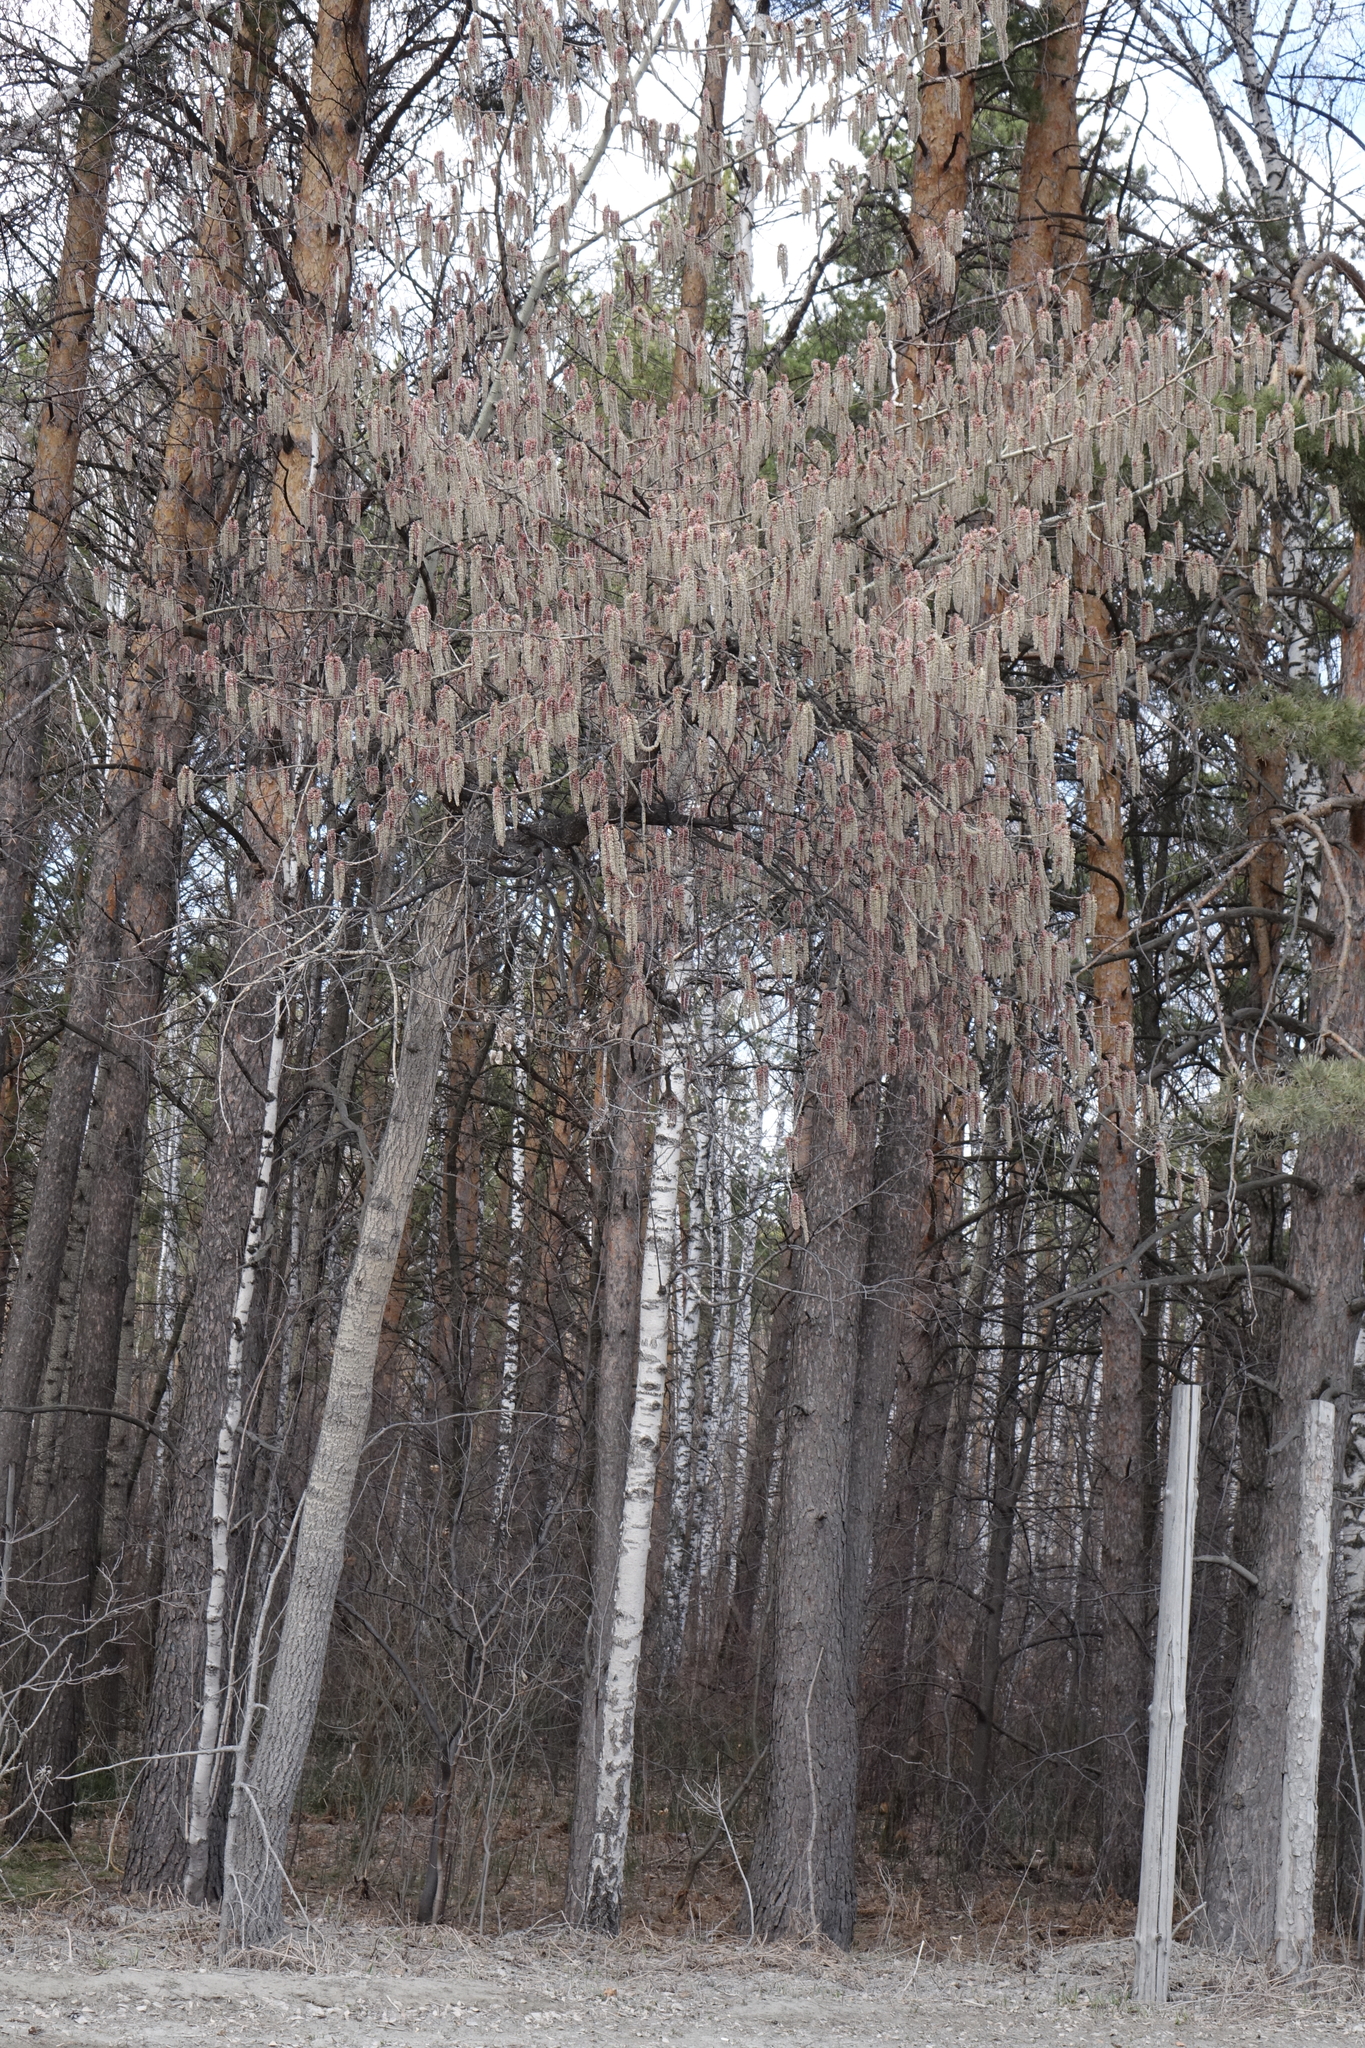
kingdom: Plantae
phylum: Tracheophyta
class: Magnoliopsida
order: Malpighiales
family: Salicaceae
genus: Populus
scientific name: Populus tremula
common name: European aspen
